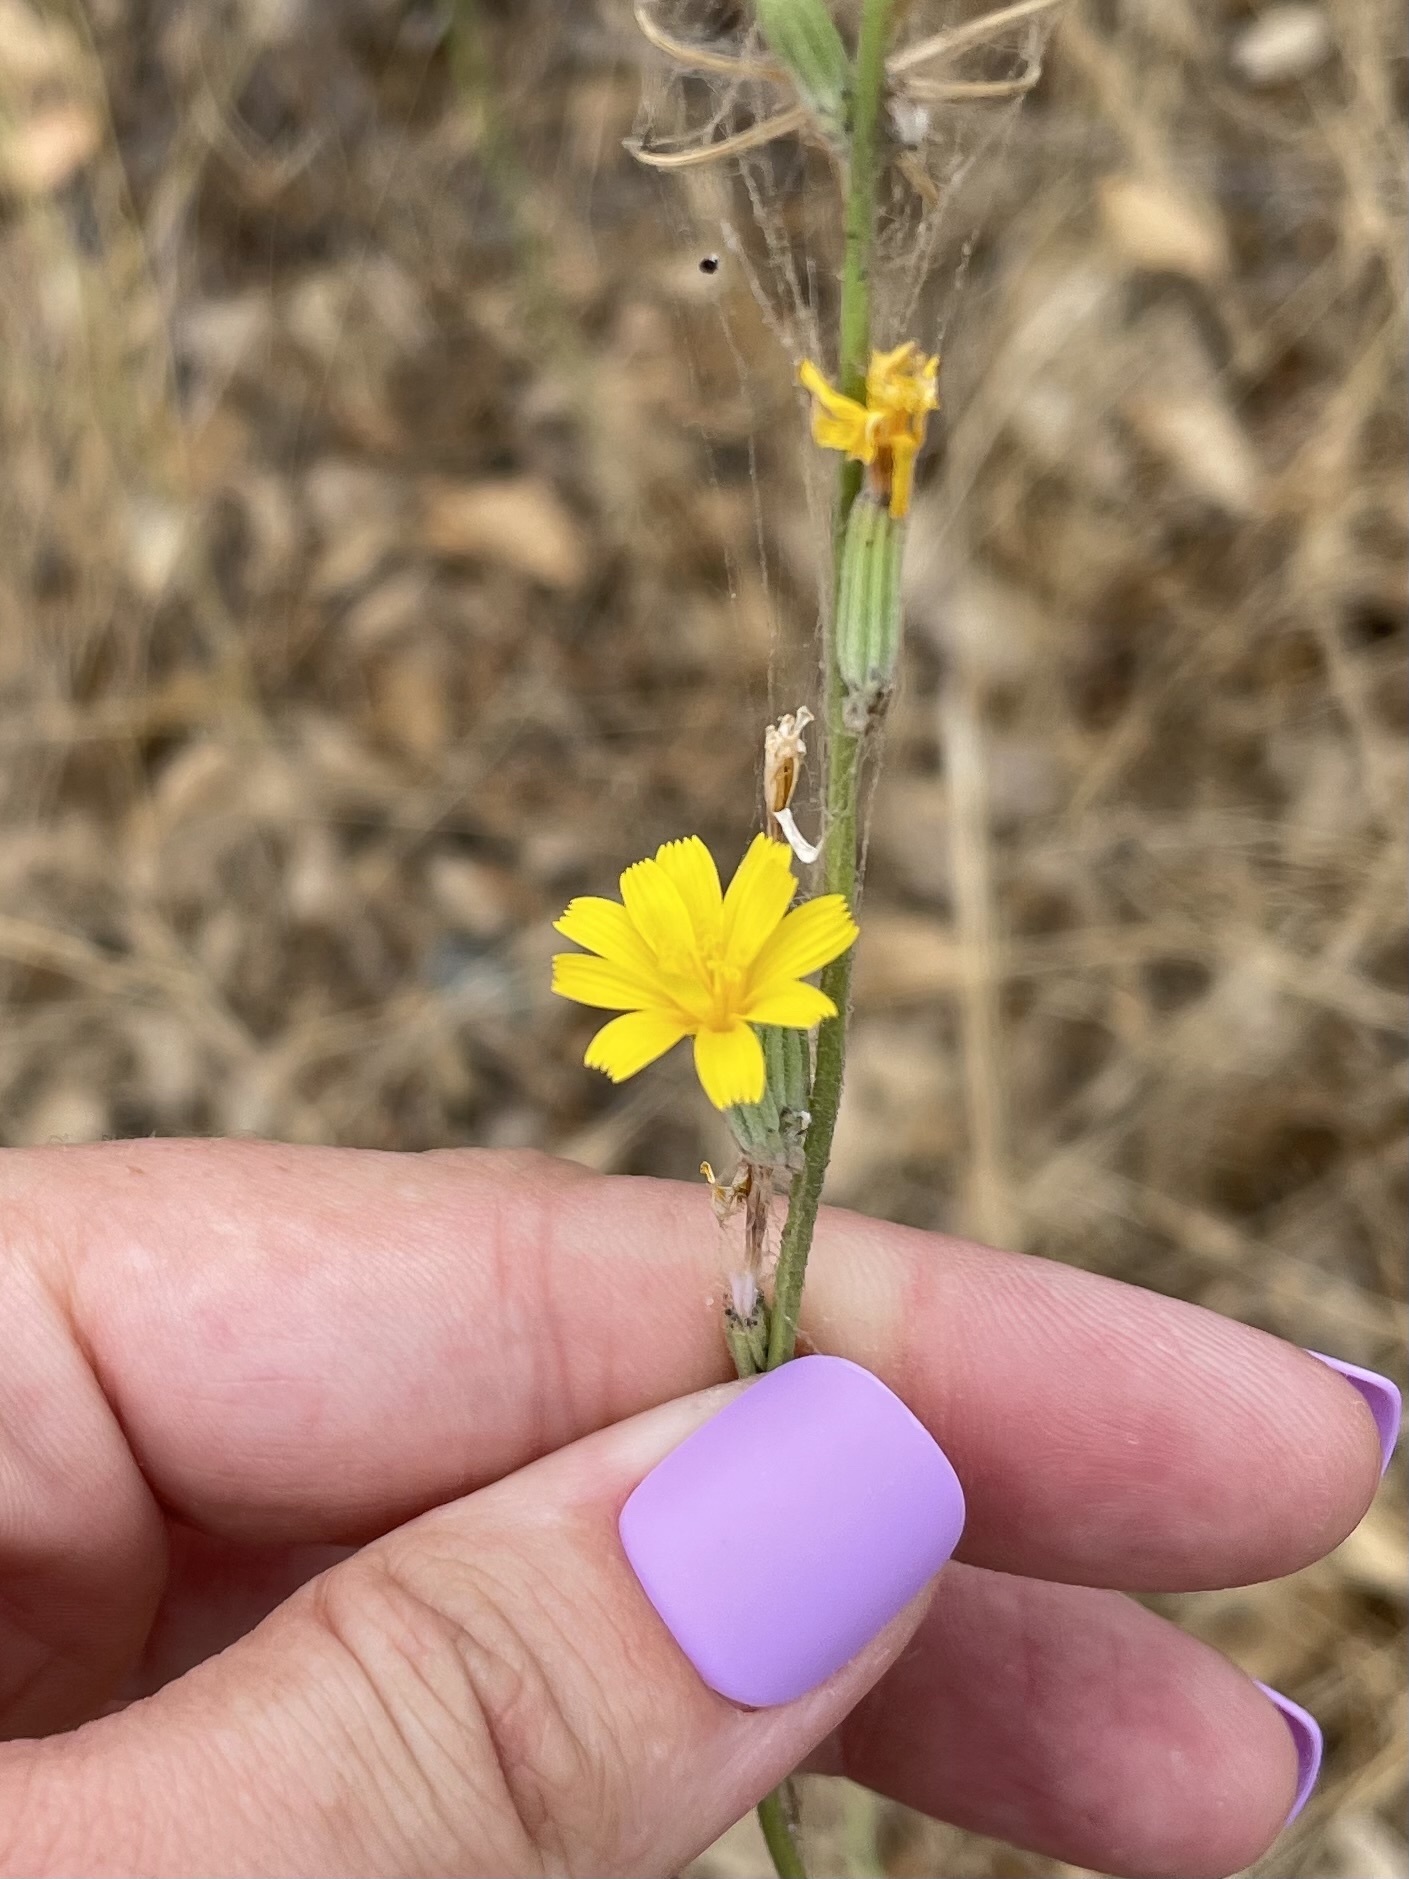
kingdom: Plantae
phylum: Tracheophyta
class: Magnoliopsida
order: Asterales
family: Asteraceae
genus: Chondrilla
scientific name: Chondrilla juncea
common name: Skeleton weed
